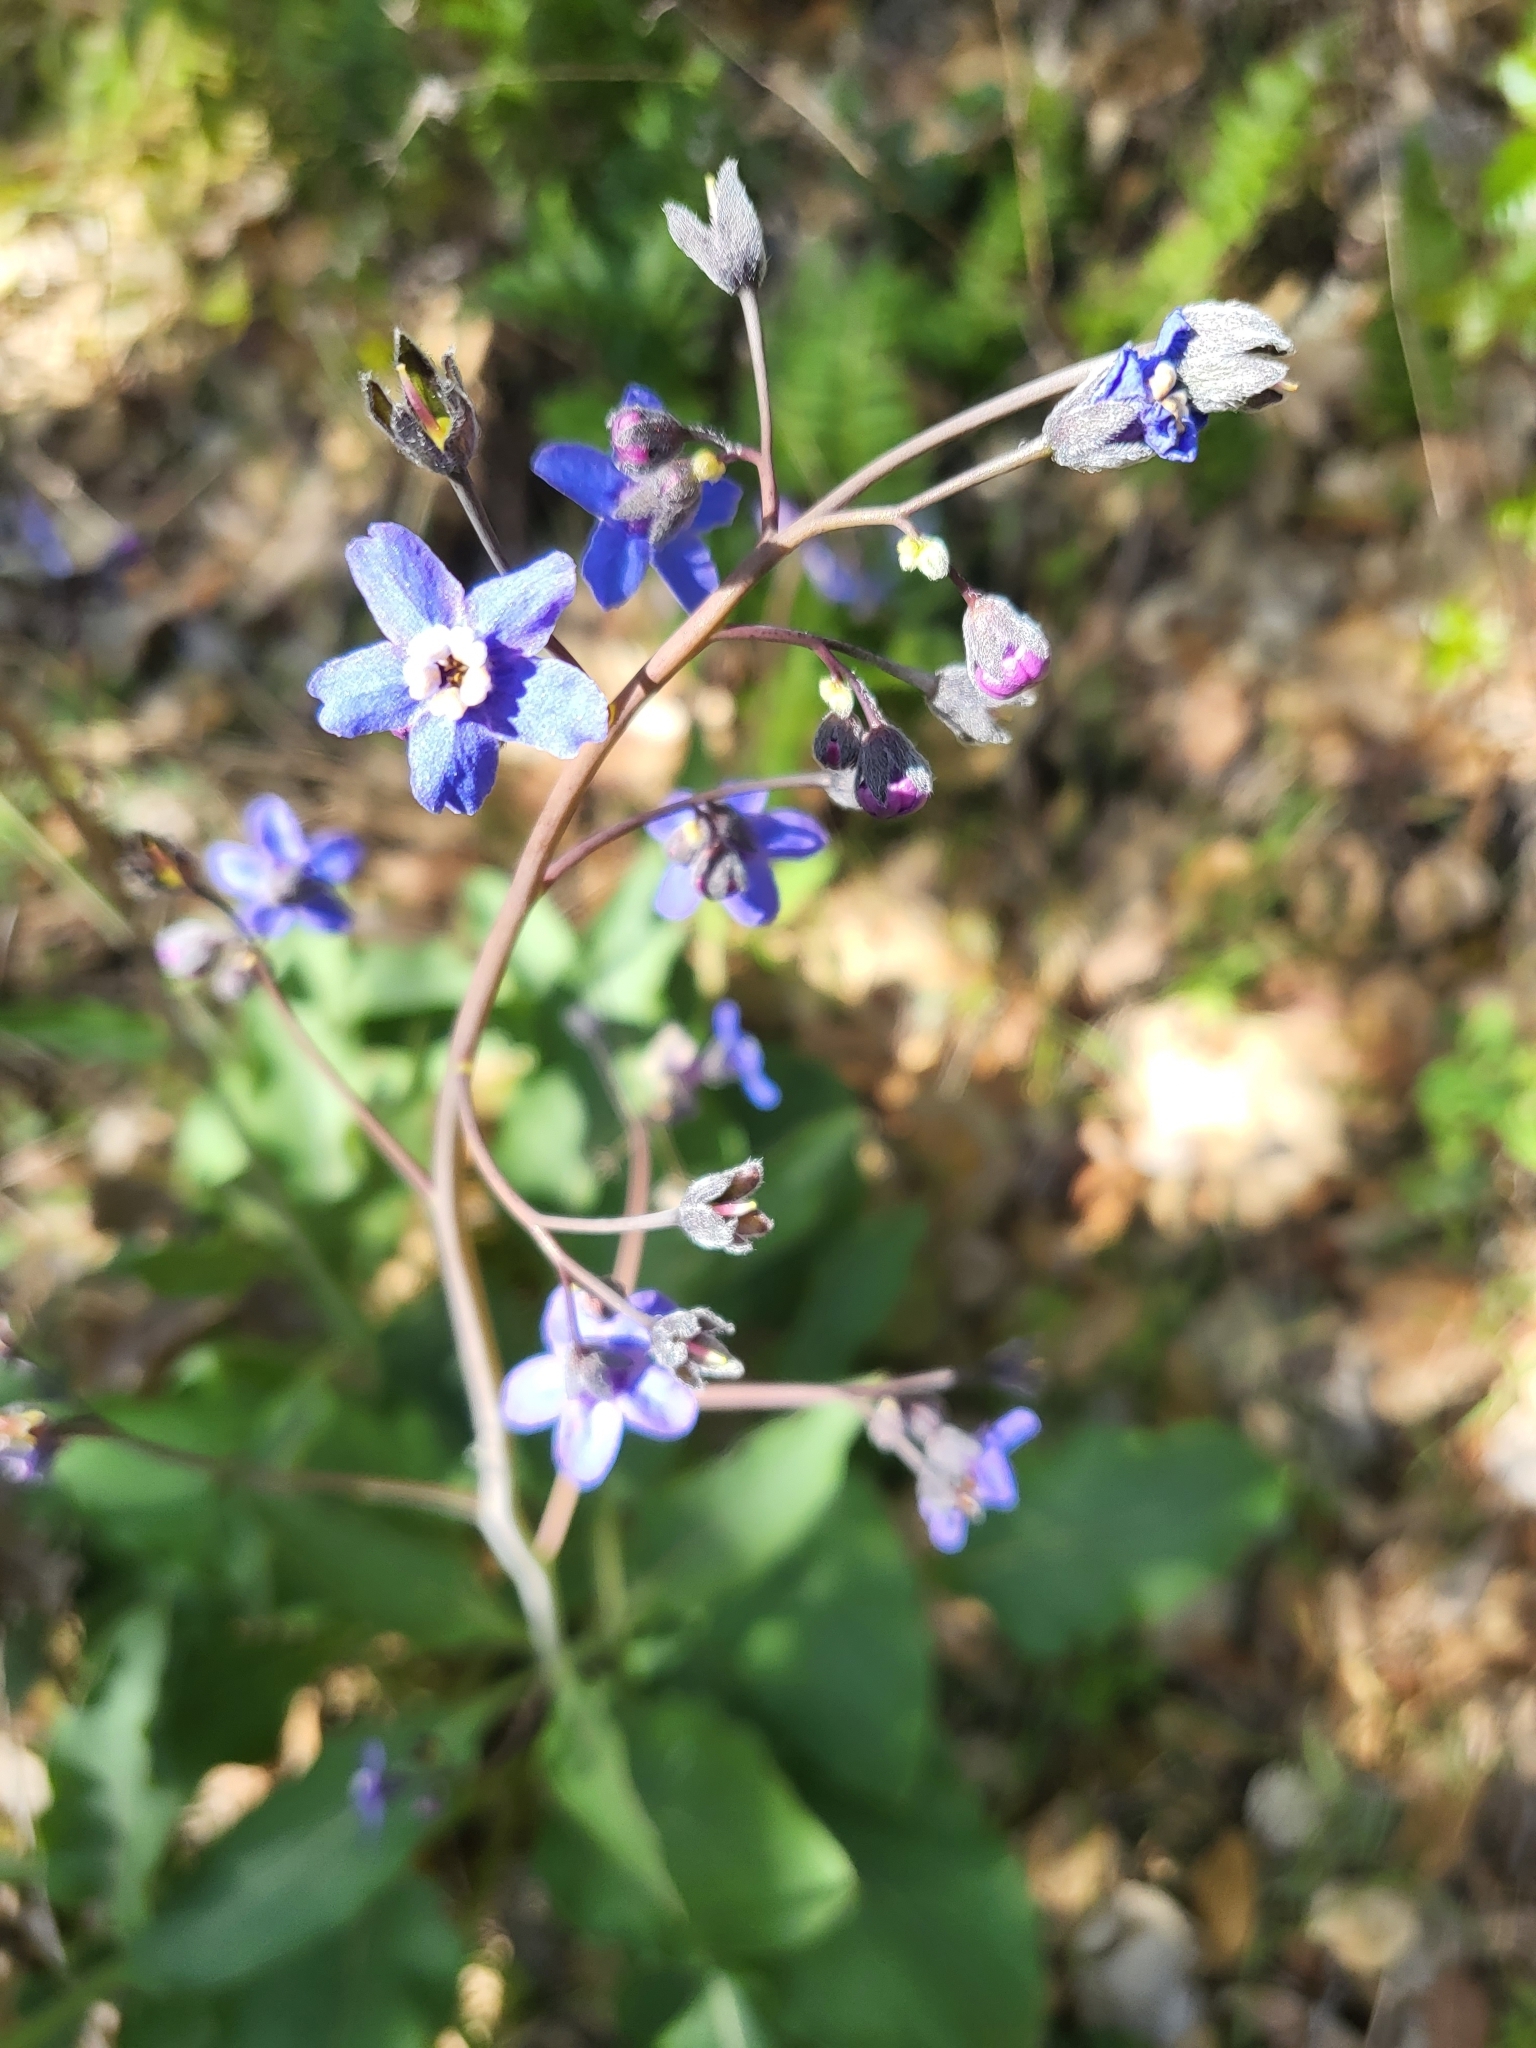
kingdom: Plantae
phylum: Tracheophyta
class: Magnoliopsida
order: Boraginales
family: Boraginaceae
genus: Adelinia
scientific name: Adelinia grande
